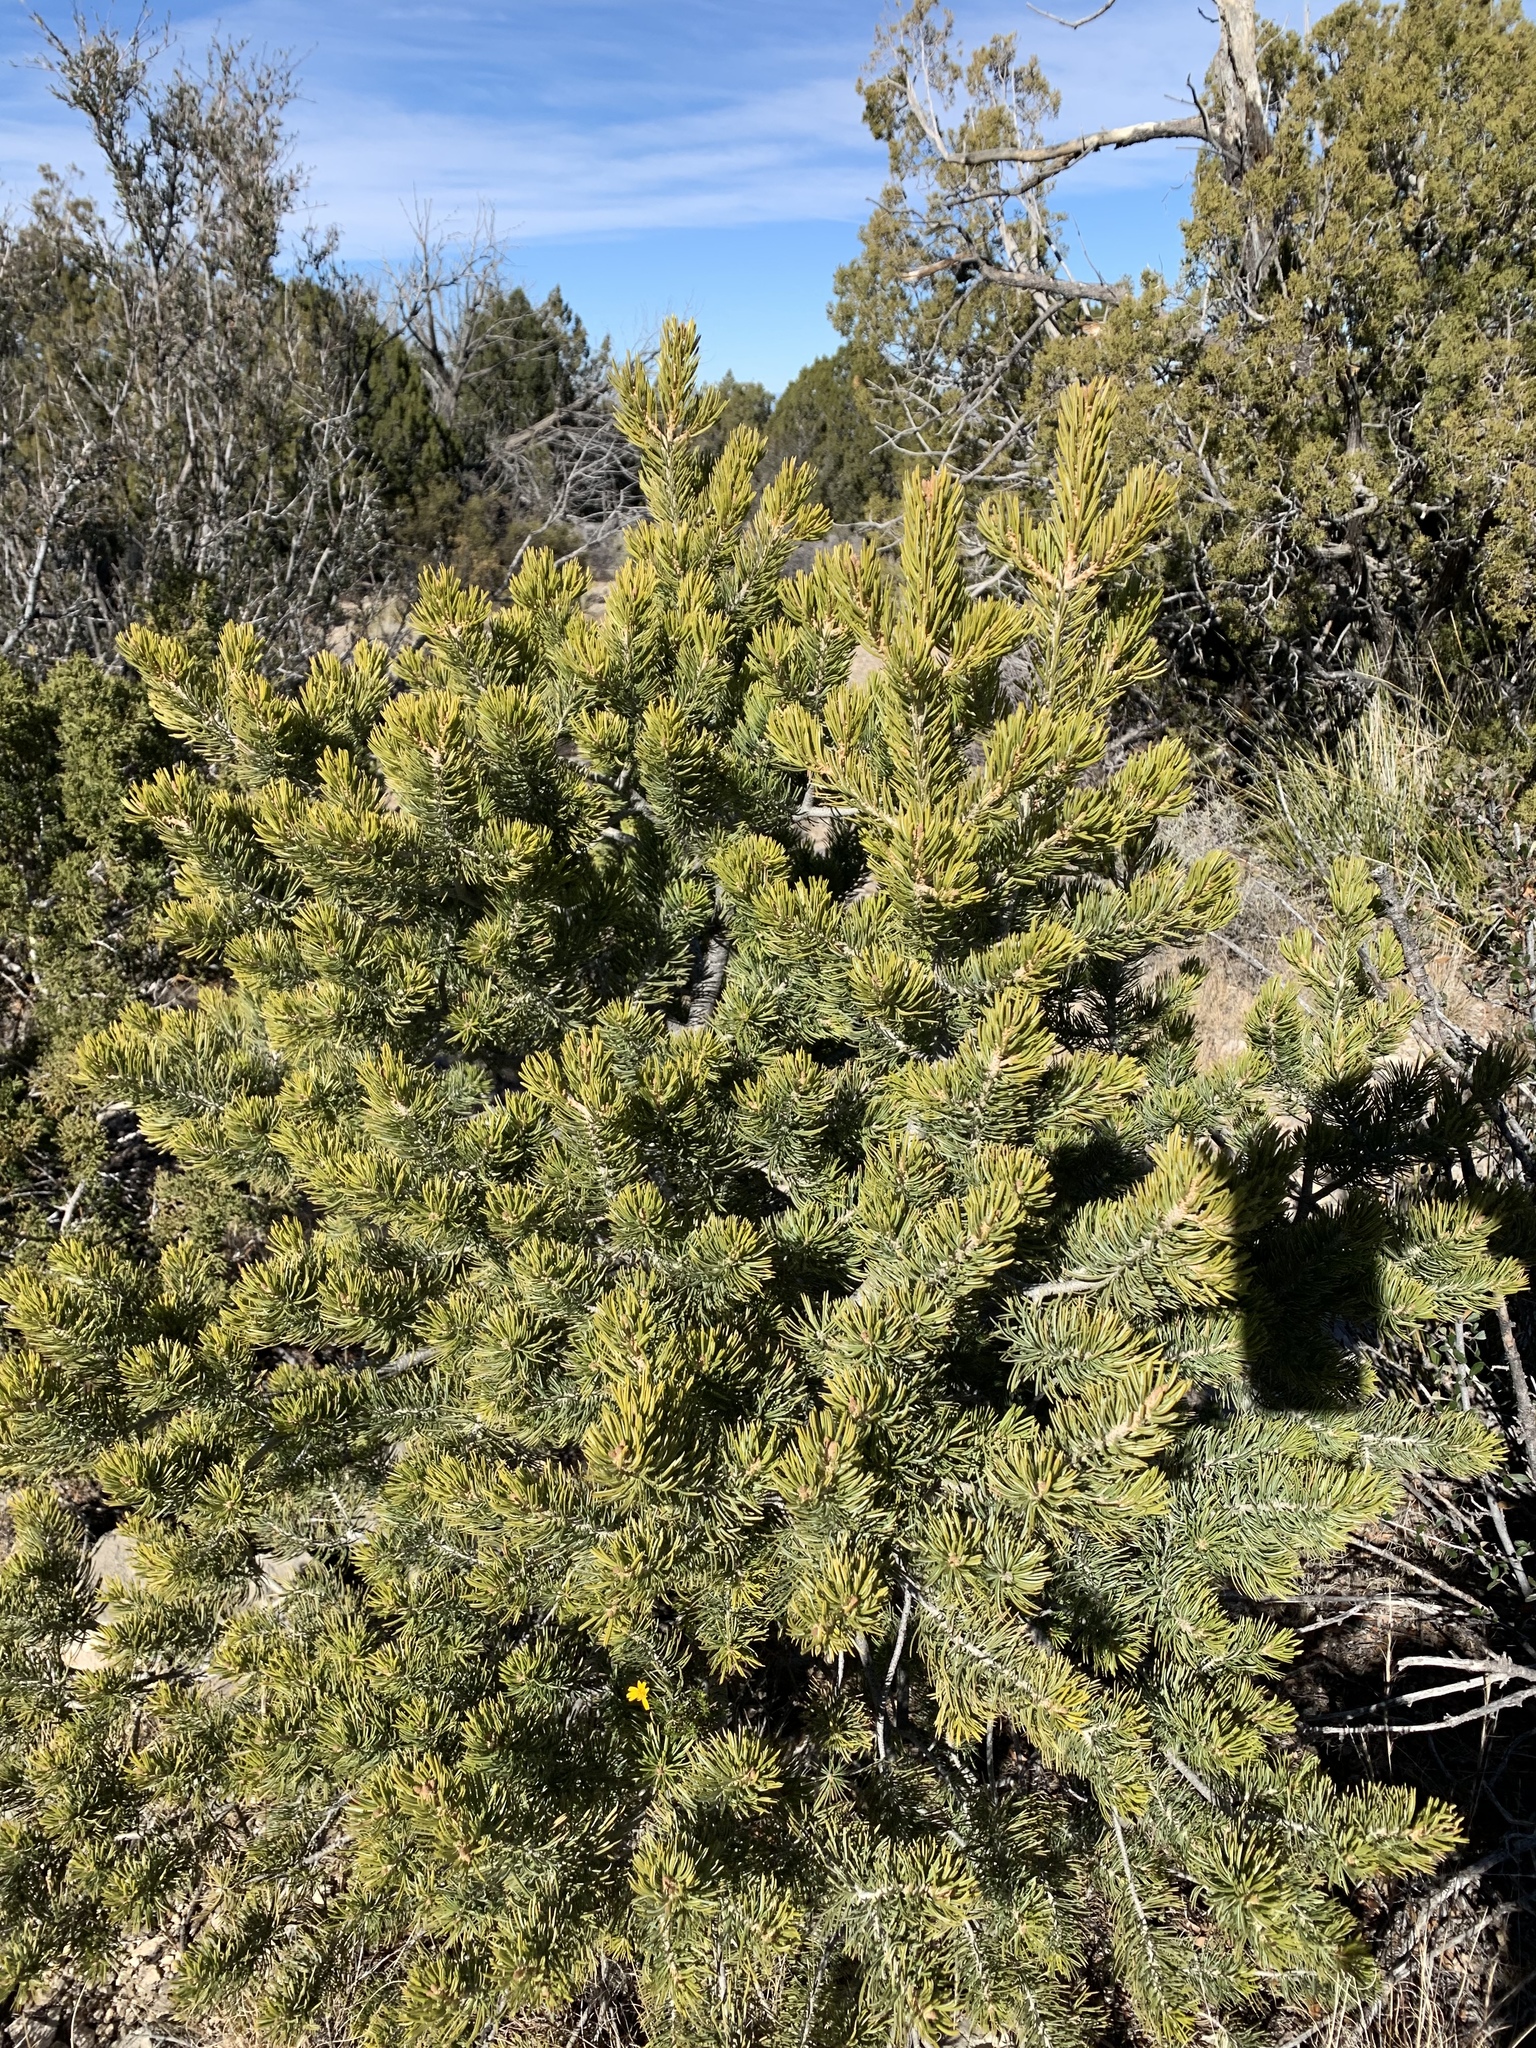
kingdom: Plantae
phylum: Tracheophyta
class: Pinopsida
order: Pinales
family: Pinaceae
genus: Pinus
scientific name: Pinus edulis
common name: Colorado pinyon
